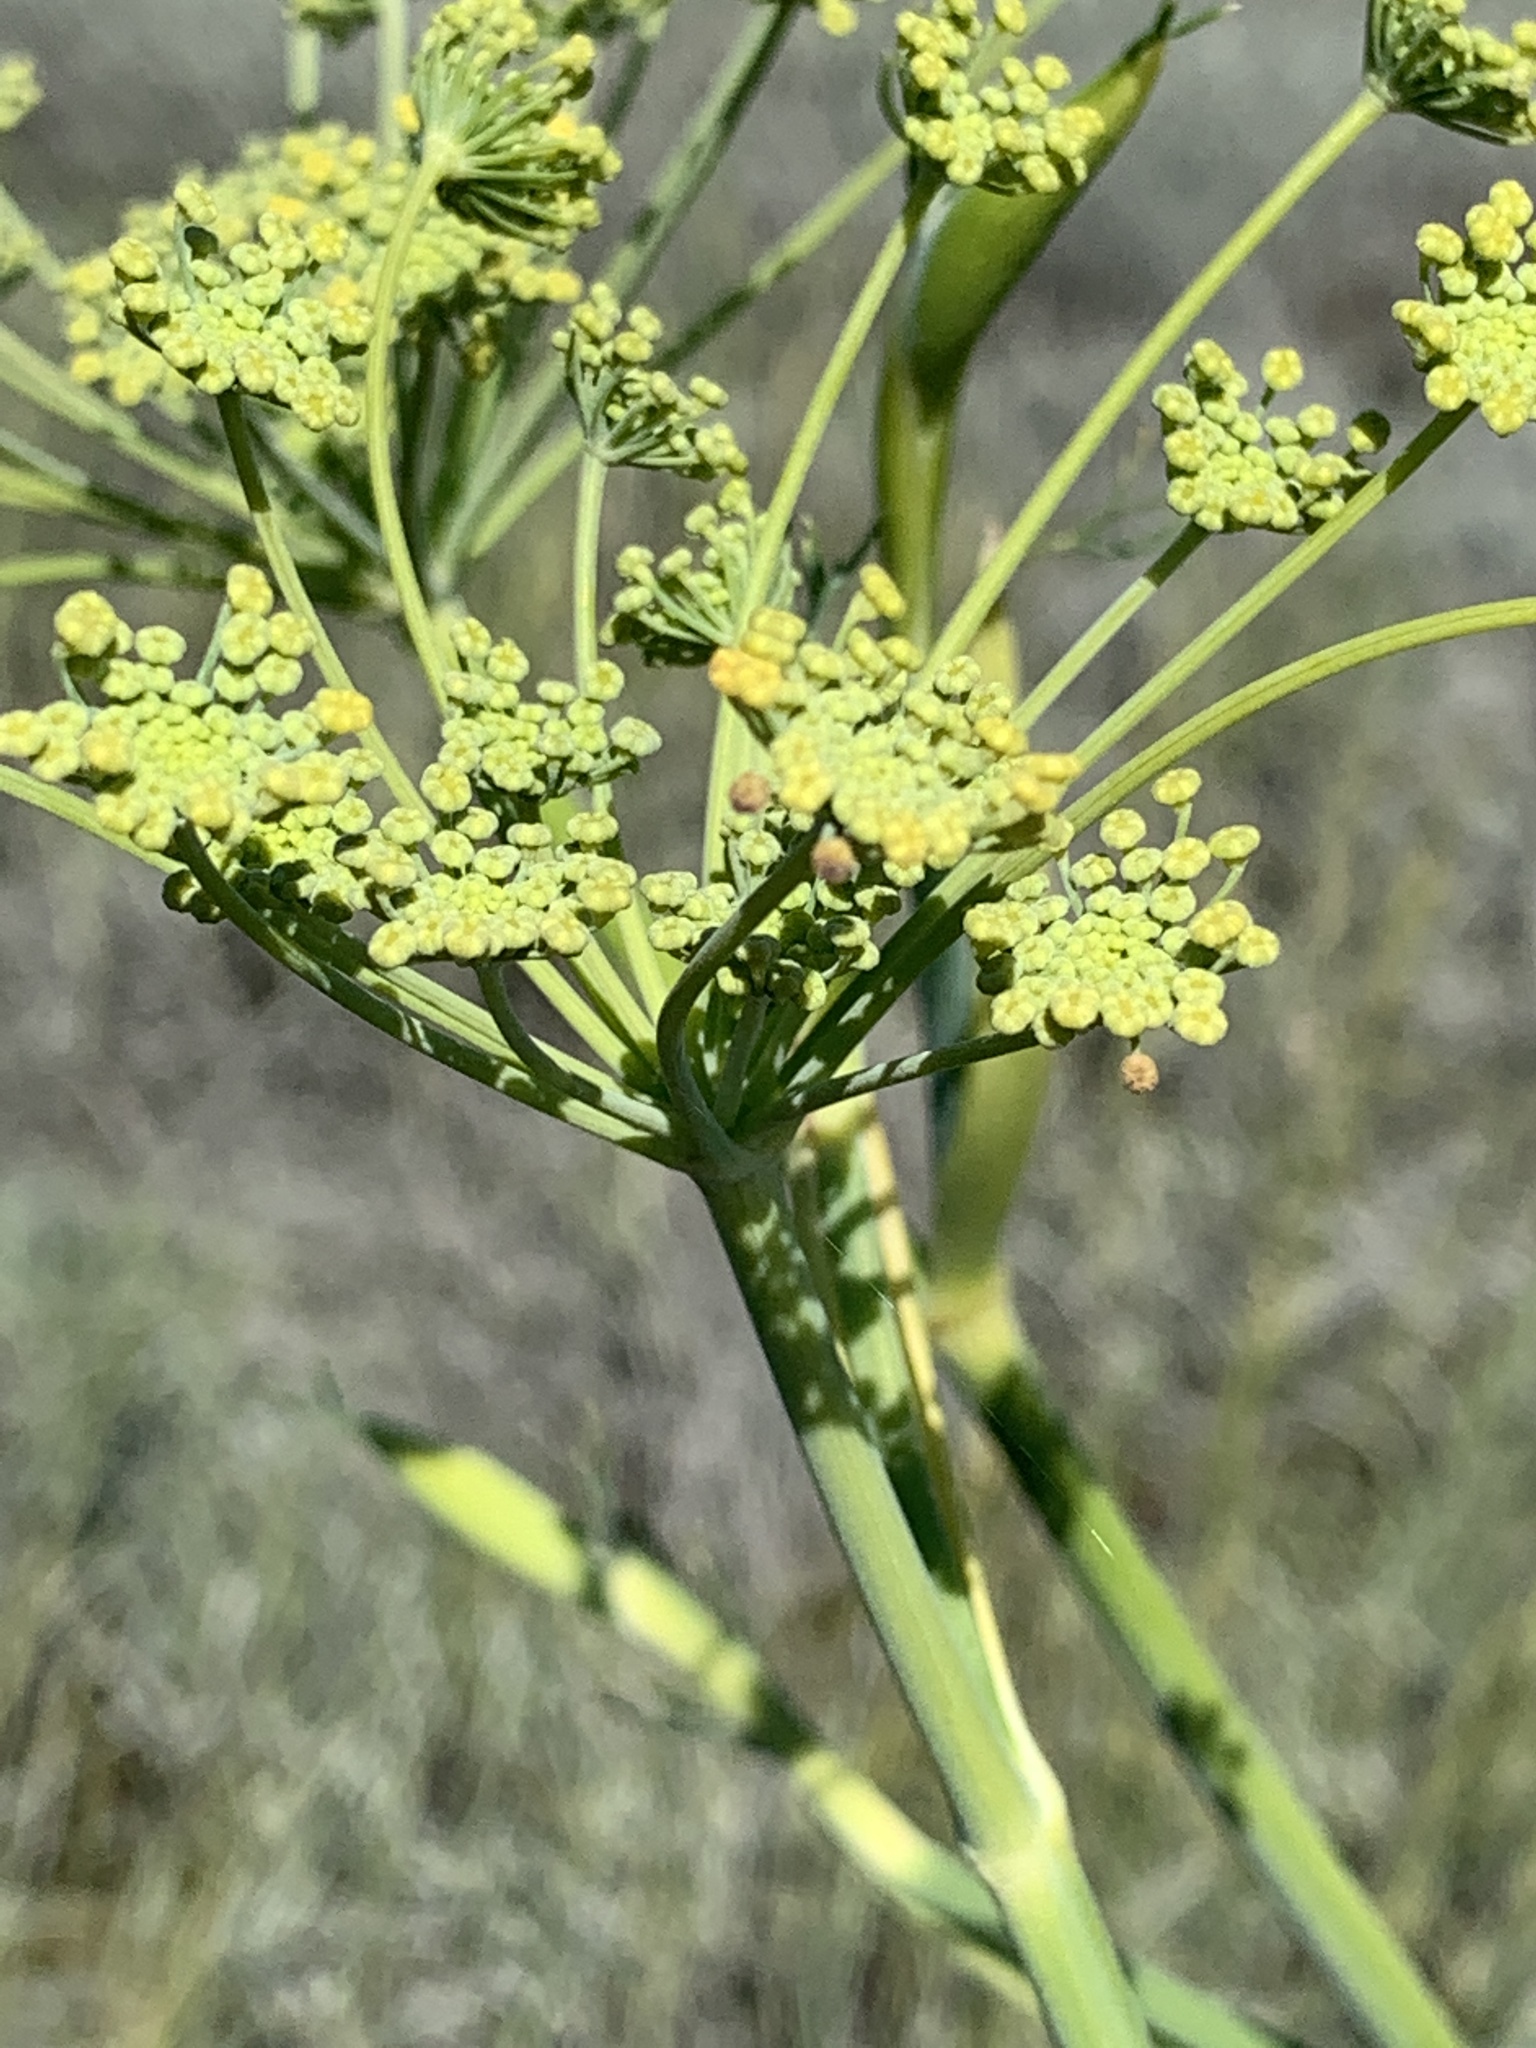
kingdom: Plantae
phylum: Tracheophyta
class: Magnoliopsida
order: Apiales
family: Apiaceae
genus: Foeniculum
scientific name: Foeniculum vulgare
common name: Fennel
